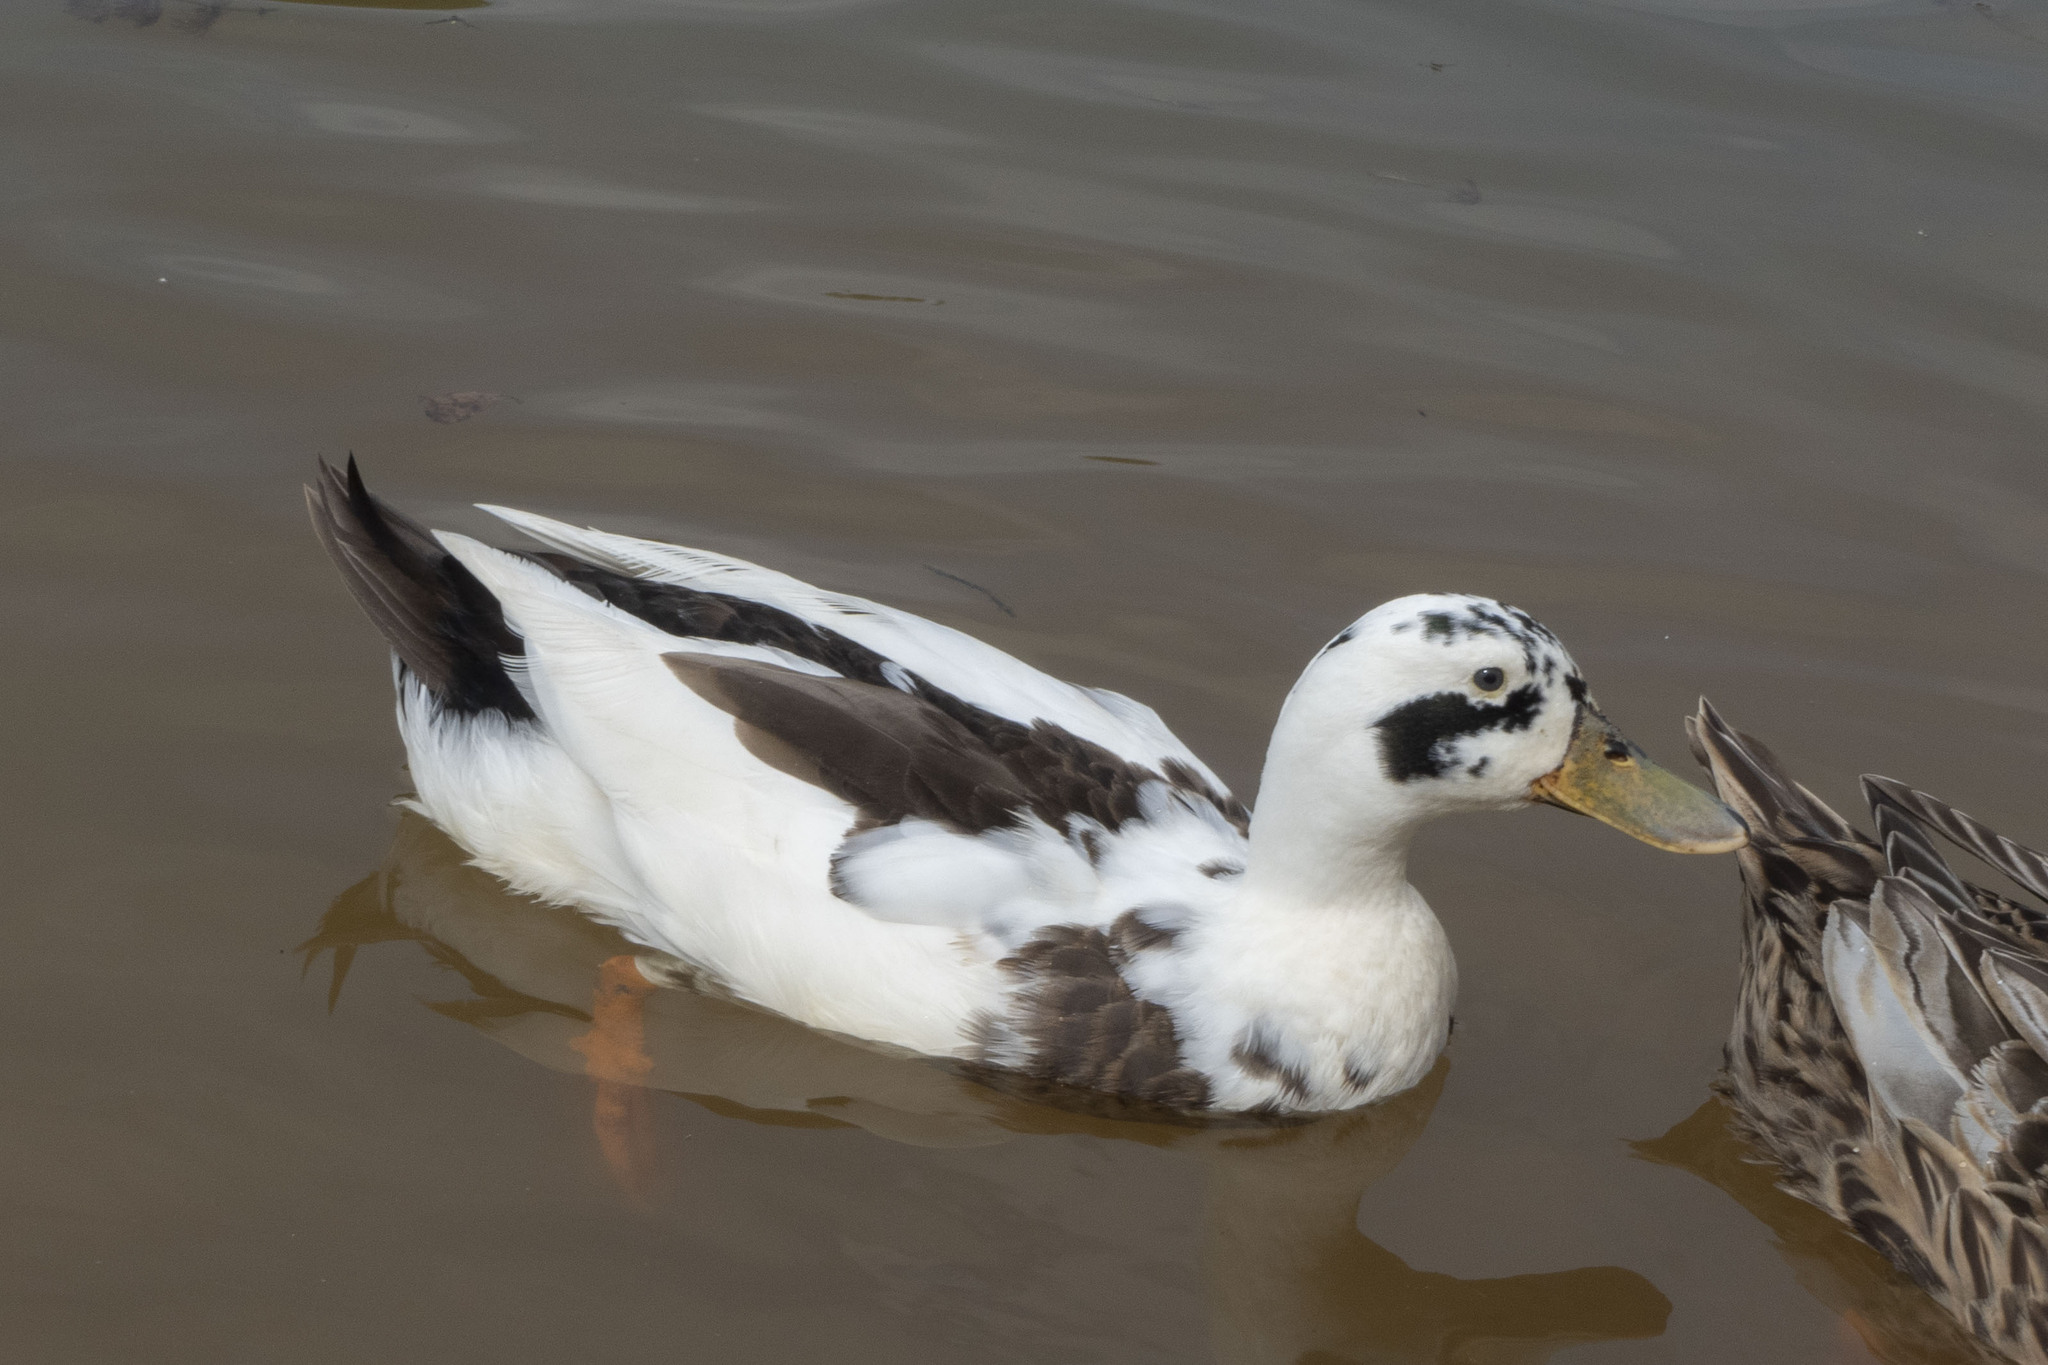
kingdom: Animalia
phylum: Chordata
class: Aves
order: Anseriformes
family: Anatidae
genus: Anas
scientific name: Anas platyrhynchos
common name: Mallard
